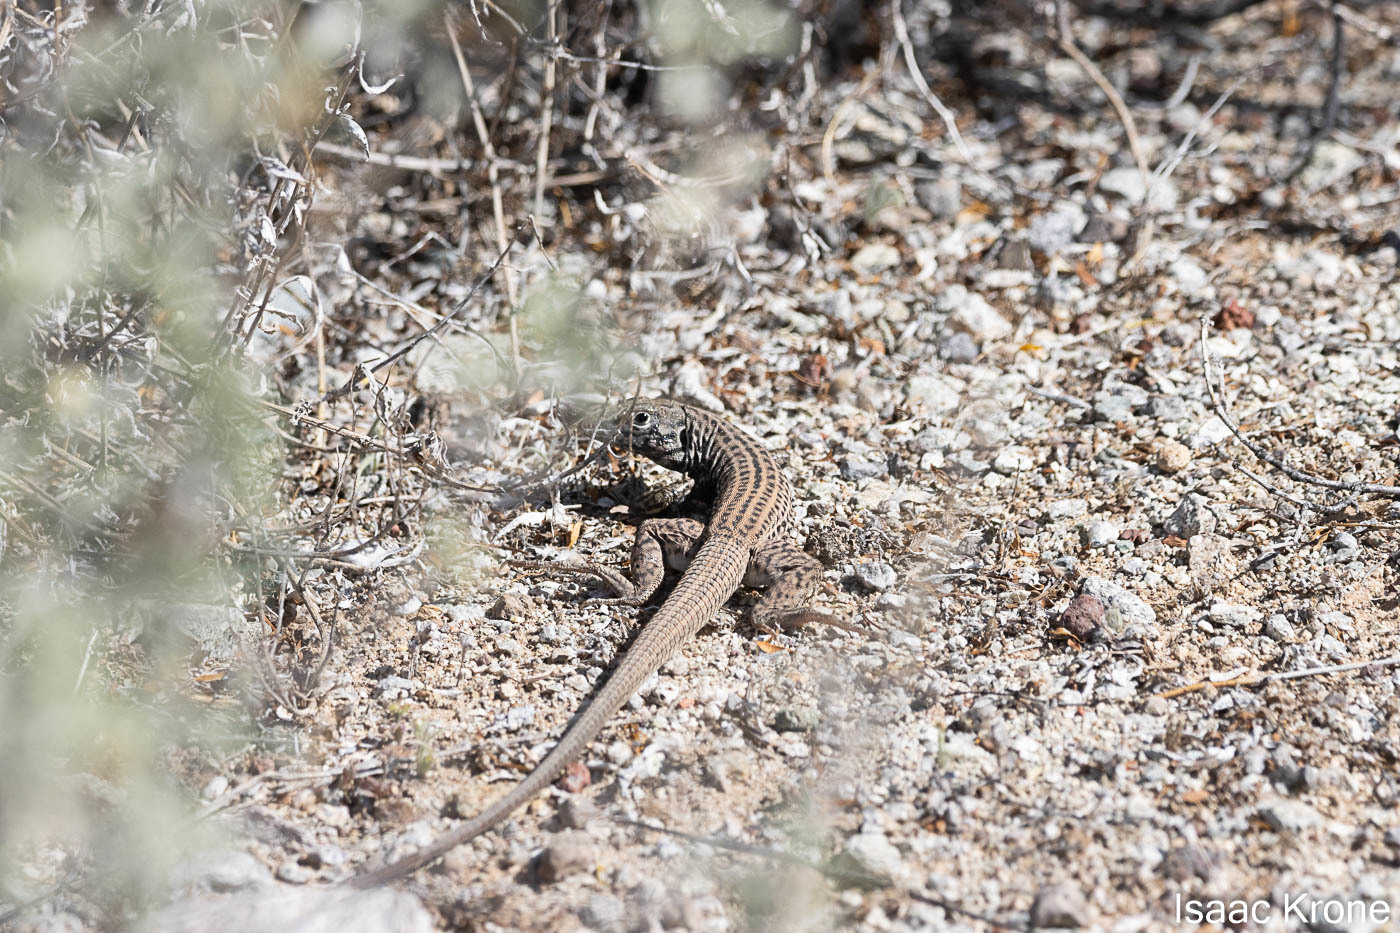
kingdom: Animalia
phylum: Chordata
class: Squamata
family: Teiidae
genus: Aspidoscelis
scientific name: Aspidoscelis tigris
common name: Tiger whiptail
